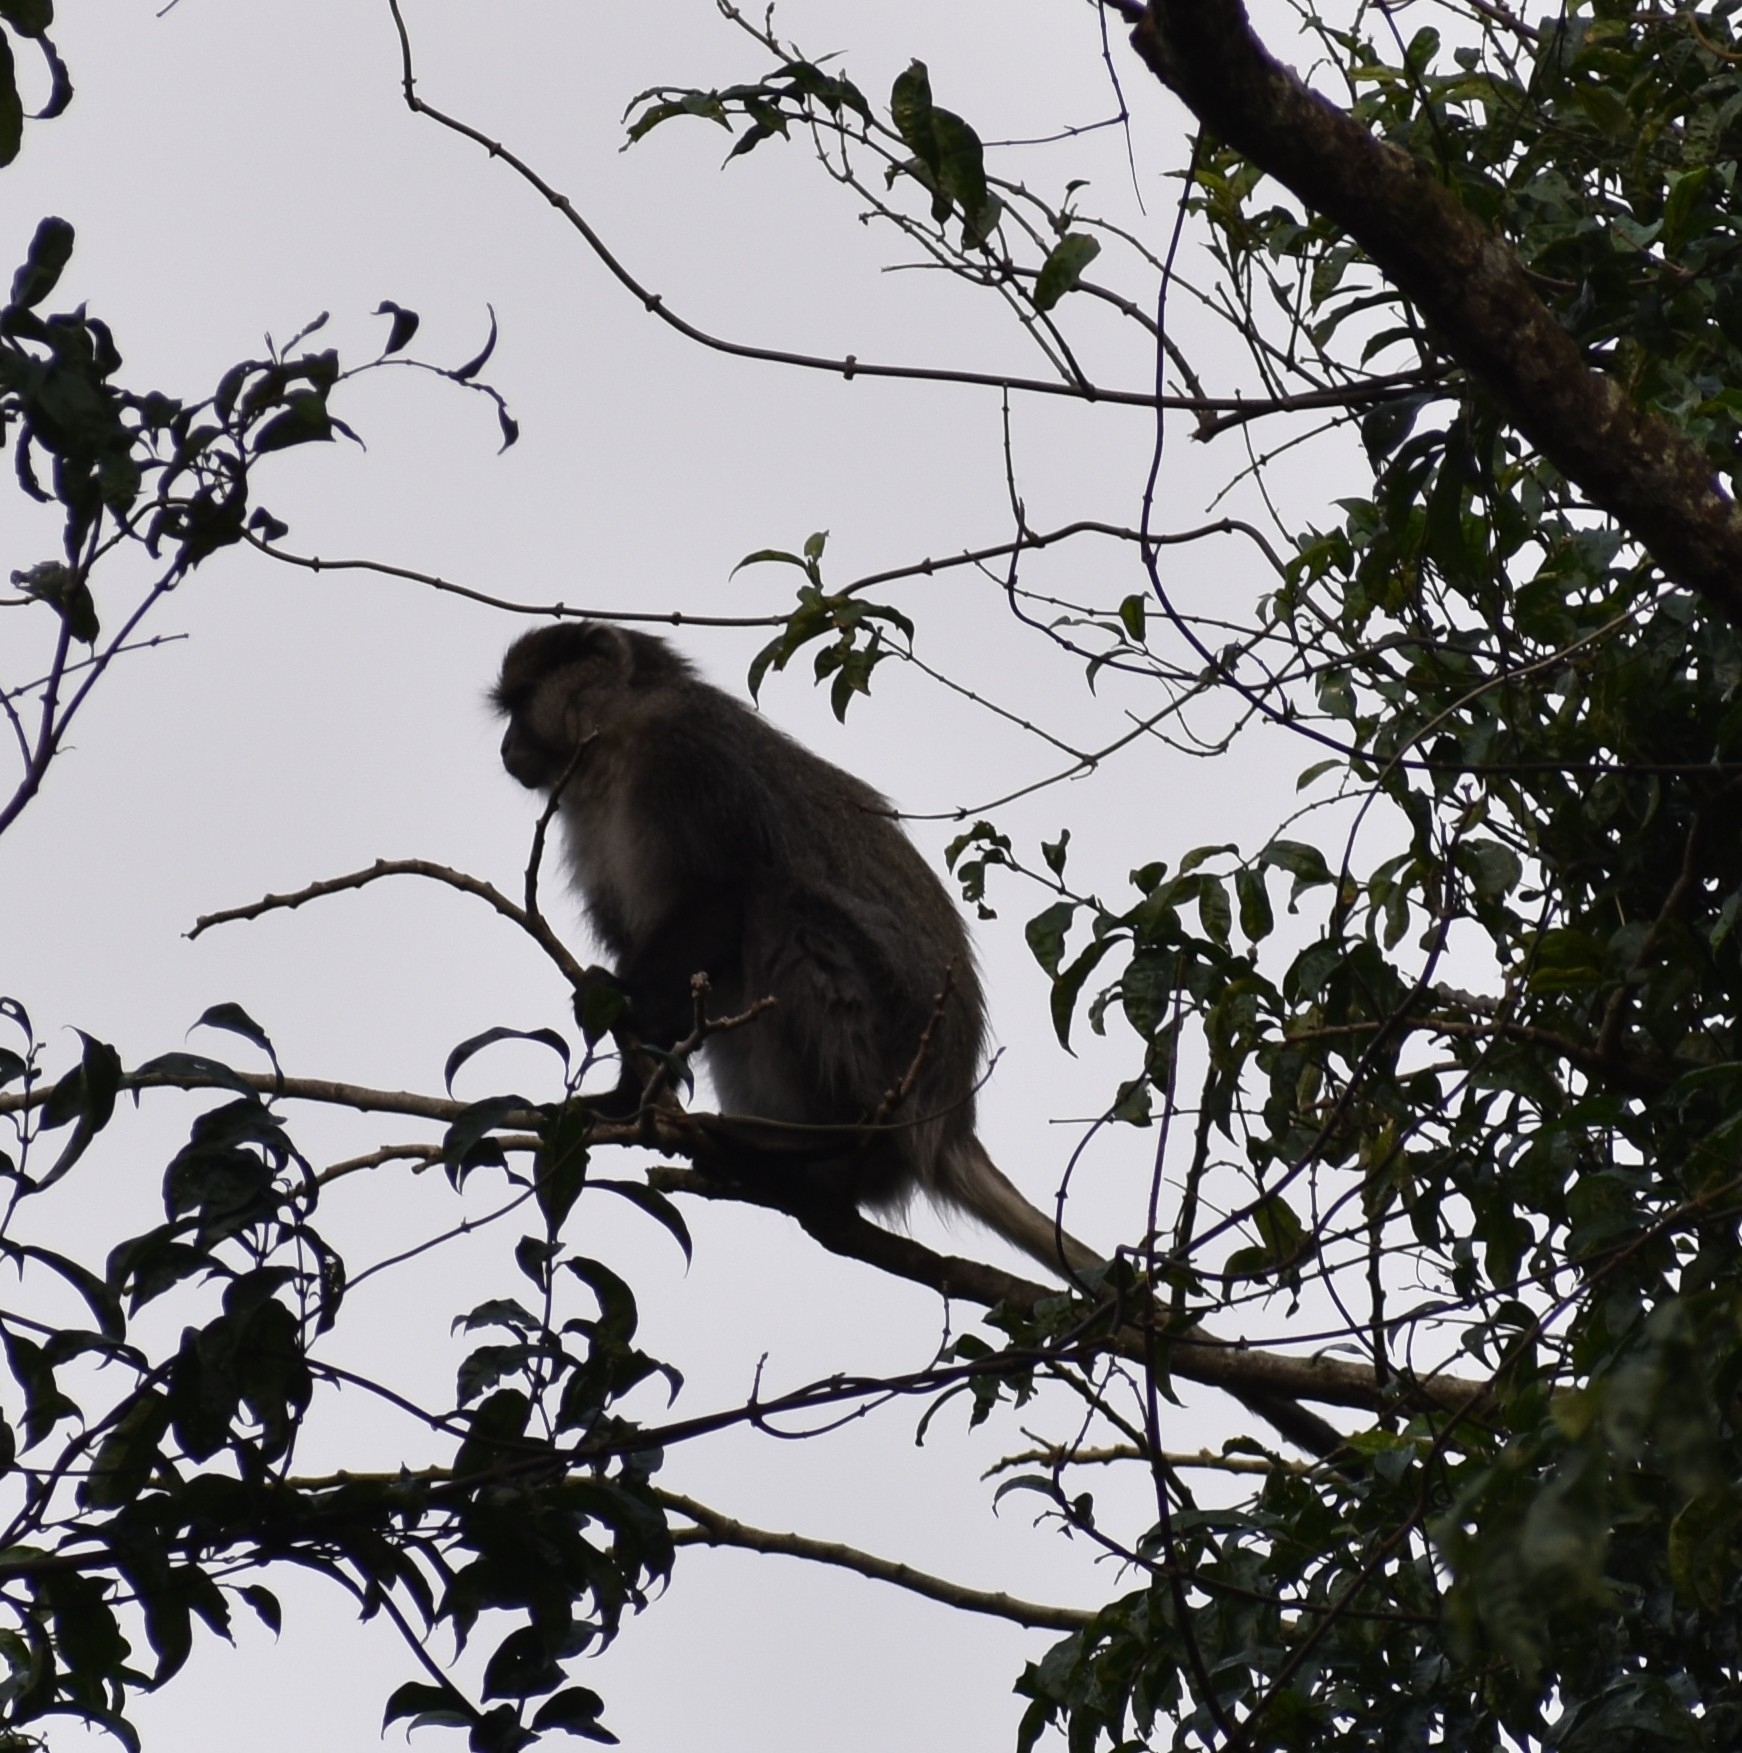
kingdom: Animalia
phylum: Chordata
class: Mammalia
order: Primates
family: Cercopithecidae
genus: Cercopithecus
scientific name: Cercopithecus mitis
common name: Blue monkey
